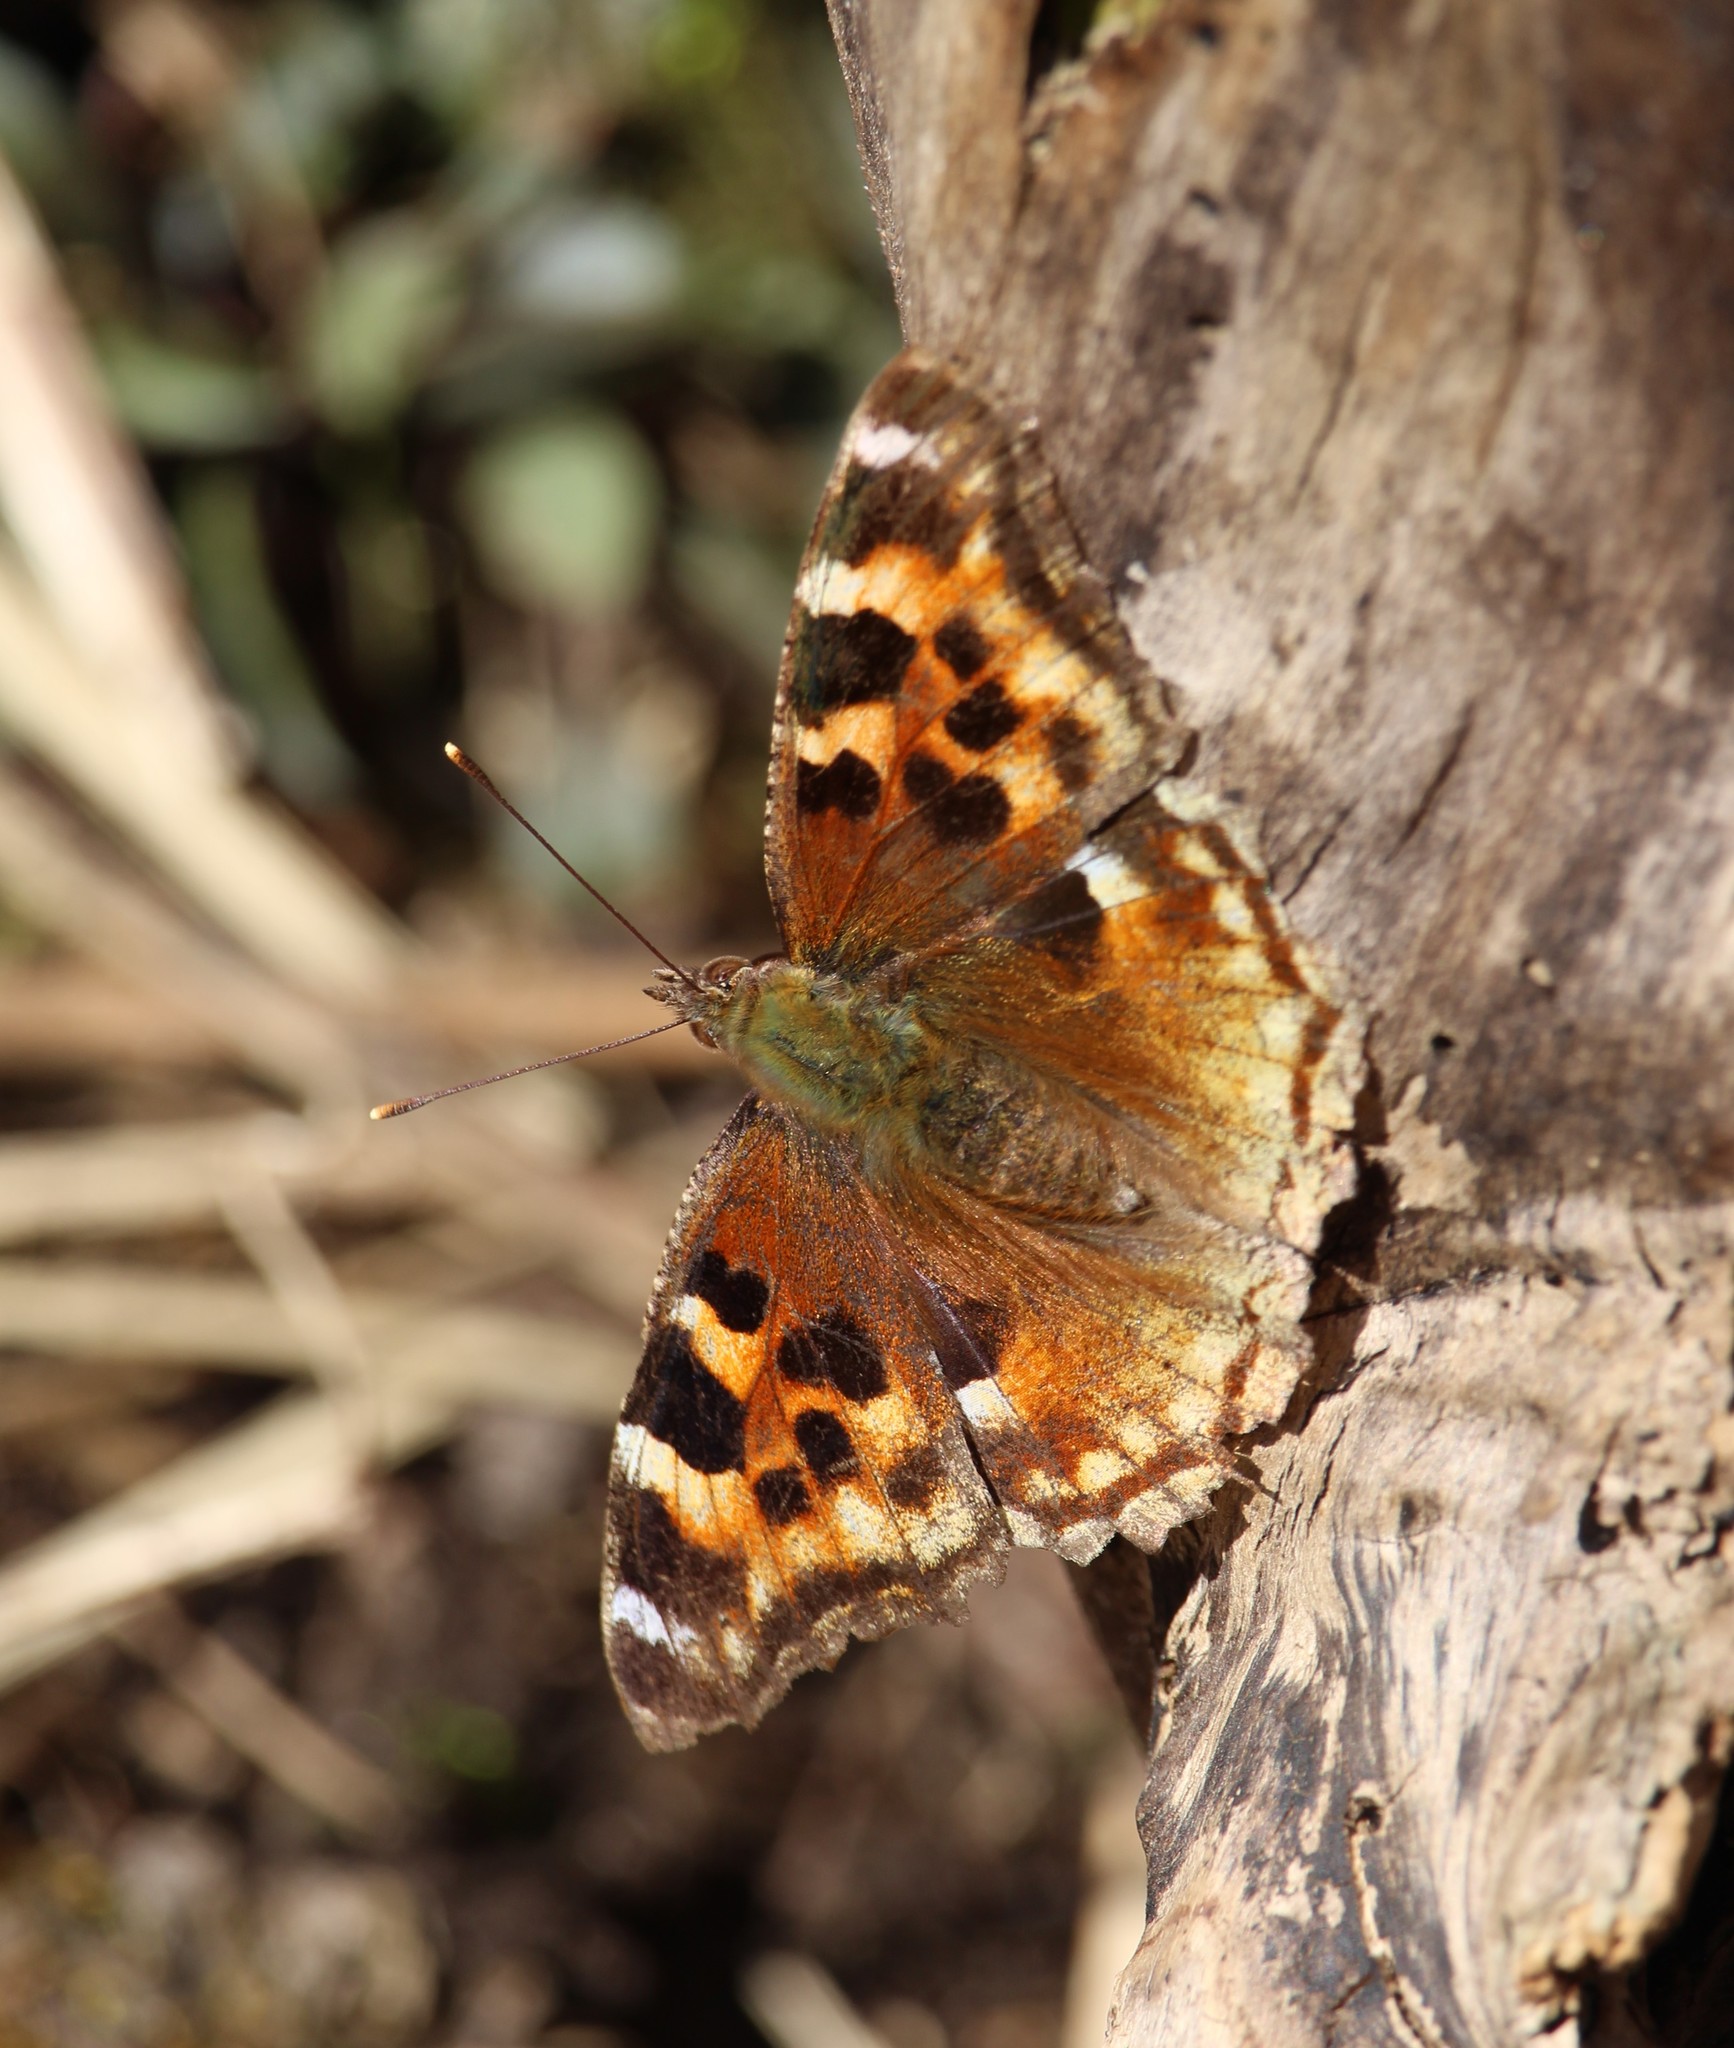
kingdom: Animalia
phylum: Arthropoda
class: Insecta
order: Lepidoptera
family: Nymphalidae
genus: Polygonia
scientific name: Polygonia vaualbum
